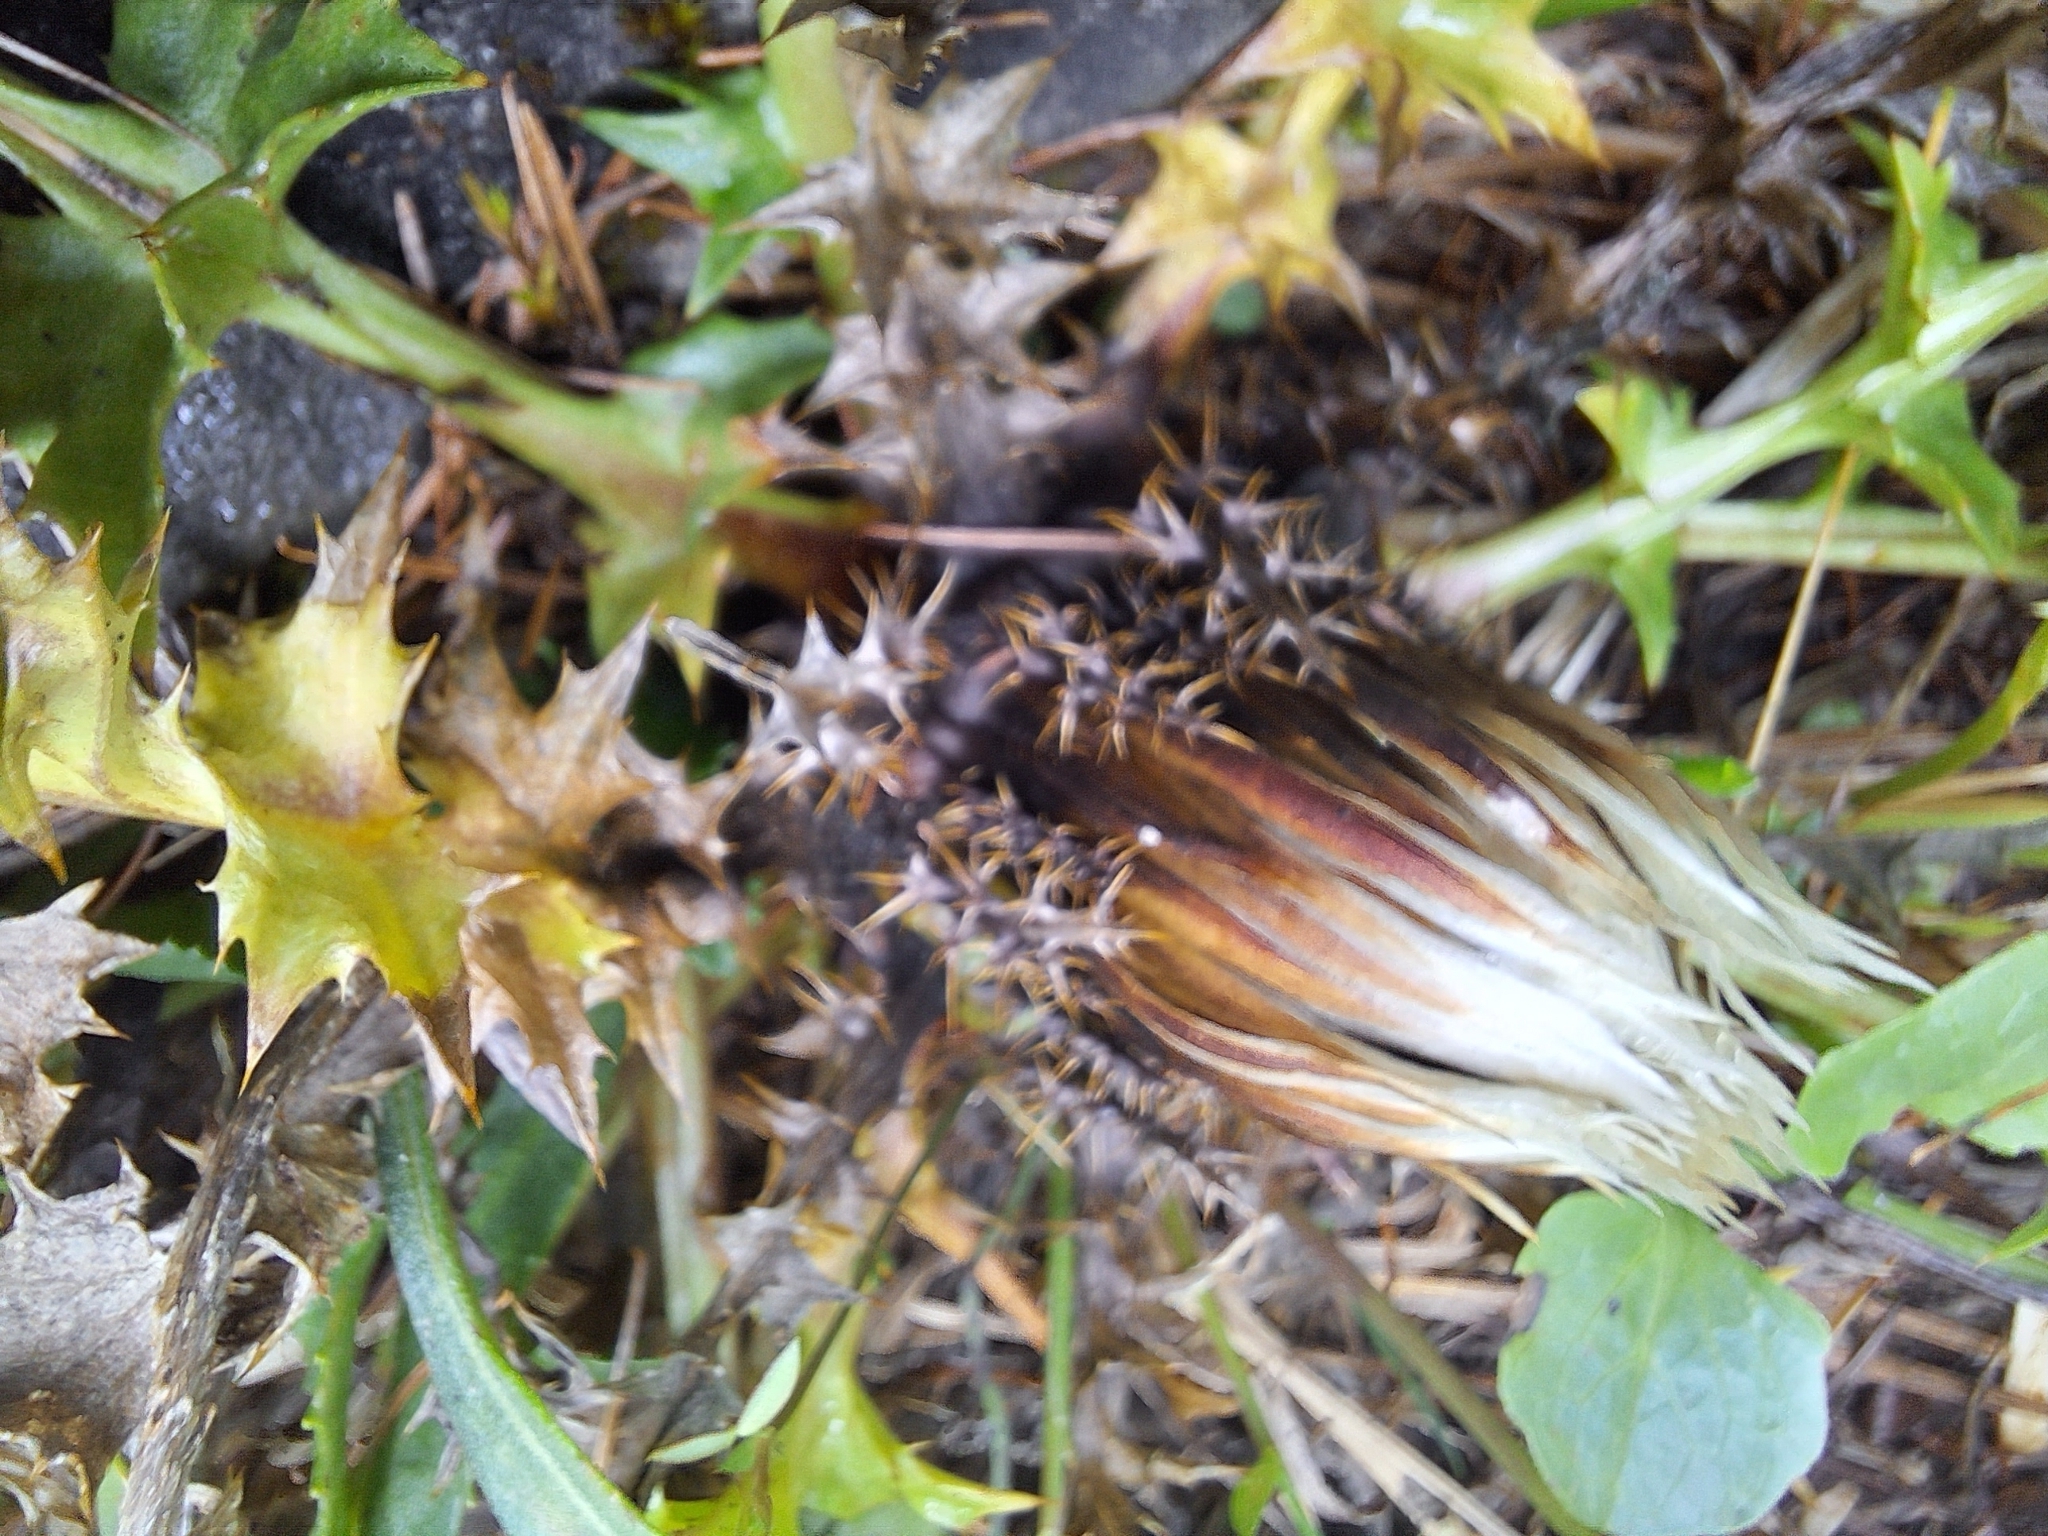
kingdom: Plantae
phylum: Tracheophyta
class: Magnoliopsida
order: Asterales
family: Asteraceae
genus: Carlina
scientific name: Carlina acaulis
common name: Stemless carline thistle
